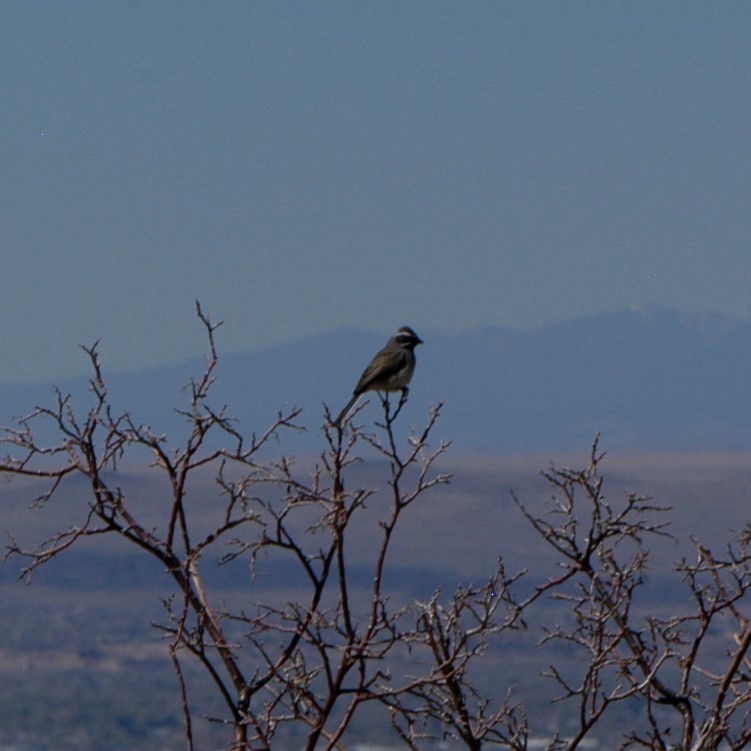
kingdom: Animalia
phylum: Chordata
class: Aves
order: Passeriformes
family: Passerellidae
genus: Amphispiza
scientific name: Amphispiza bilineata
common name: Black-throated sparrow
